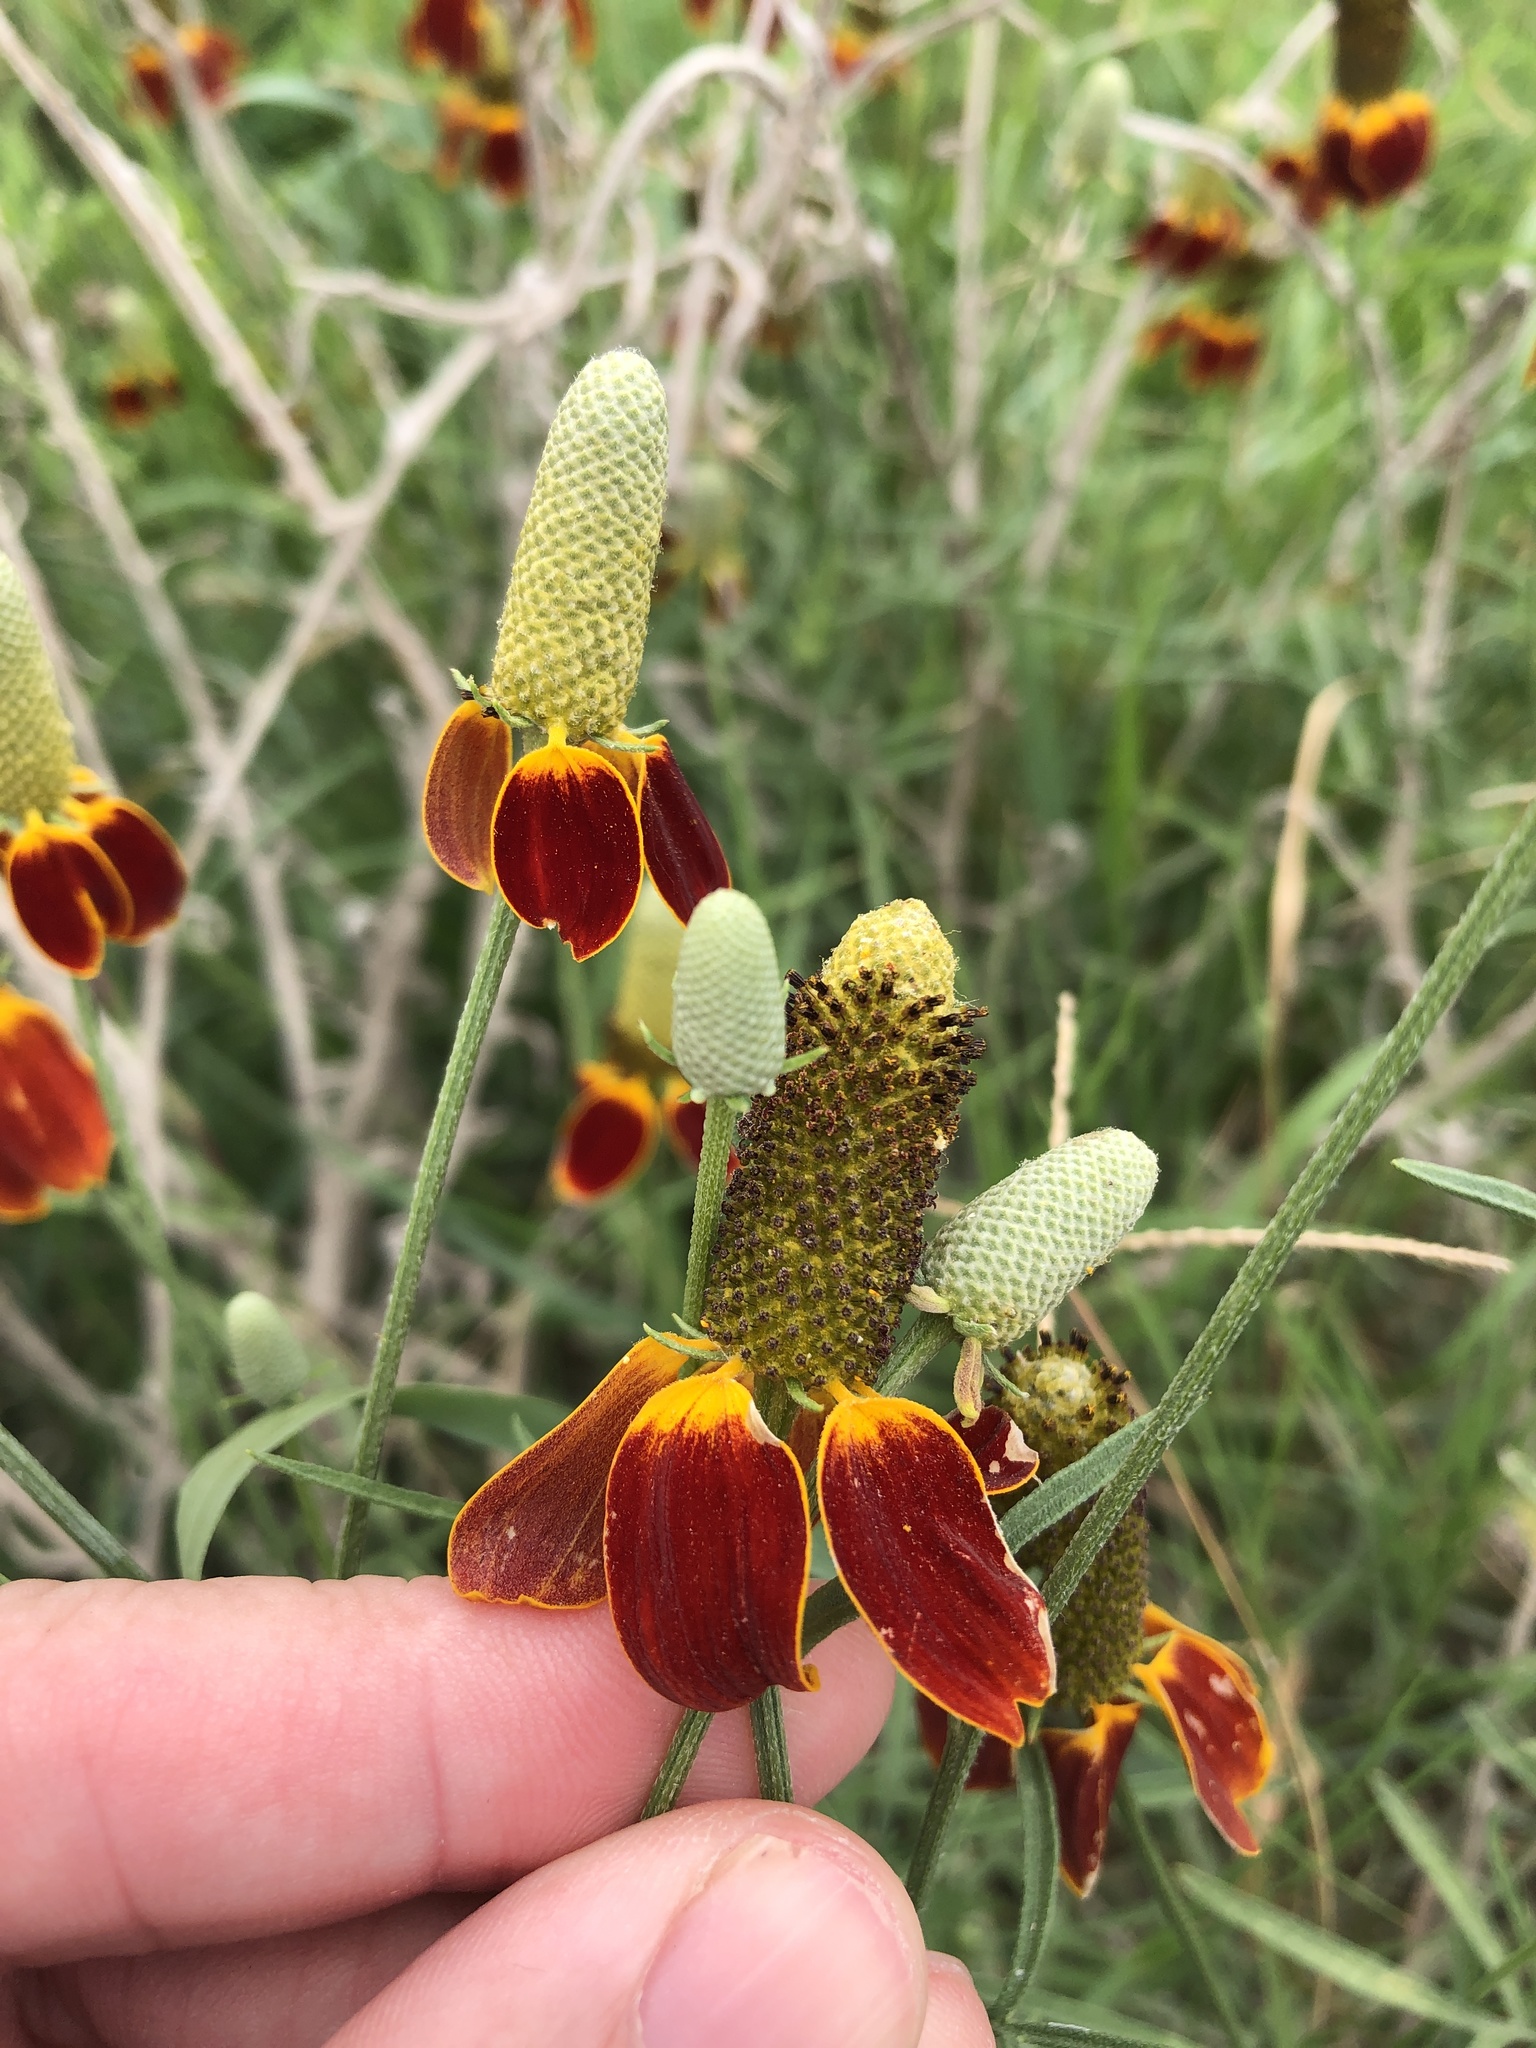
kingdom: Plantae
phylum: Tracheophyta
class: Magnoliopsida
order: Asterales
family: Asteraceae
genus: Ratibida
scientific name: Ratibida columnifera
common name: Prairie coneflower
